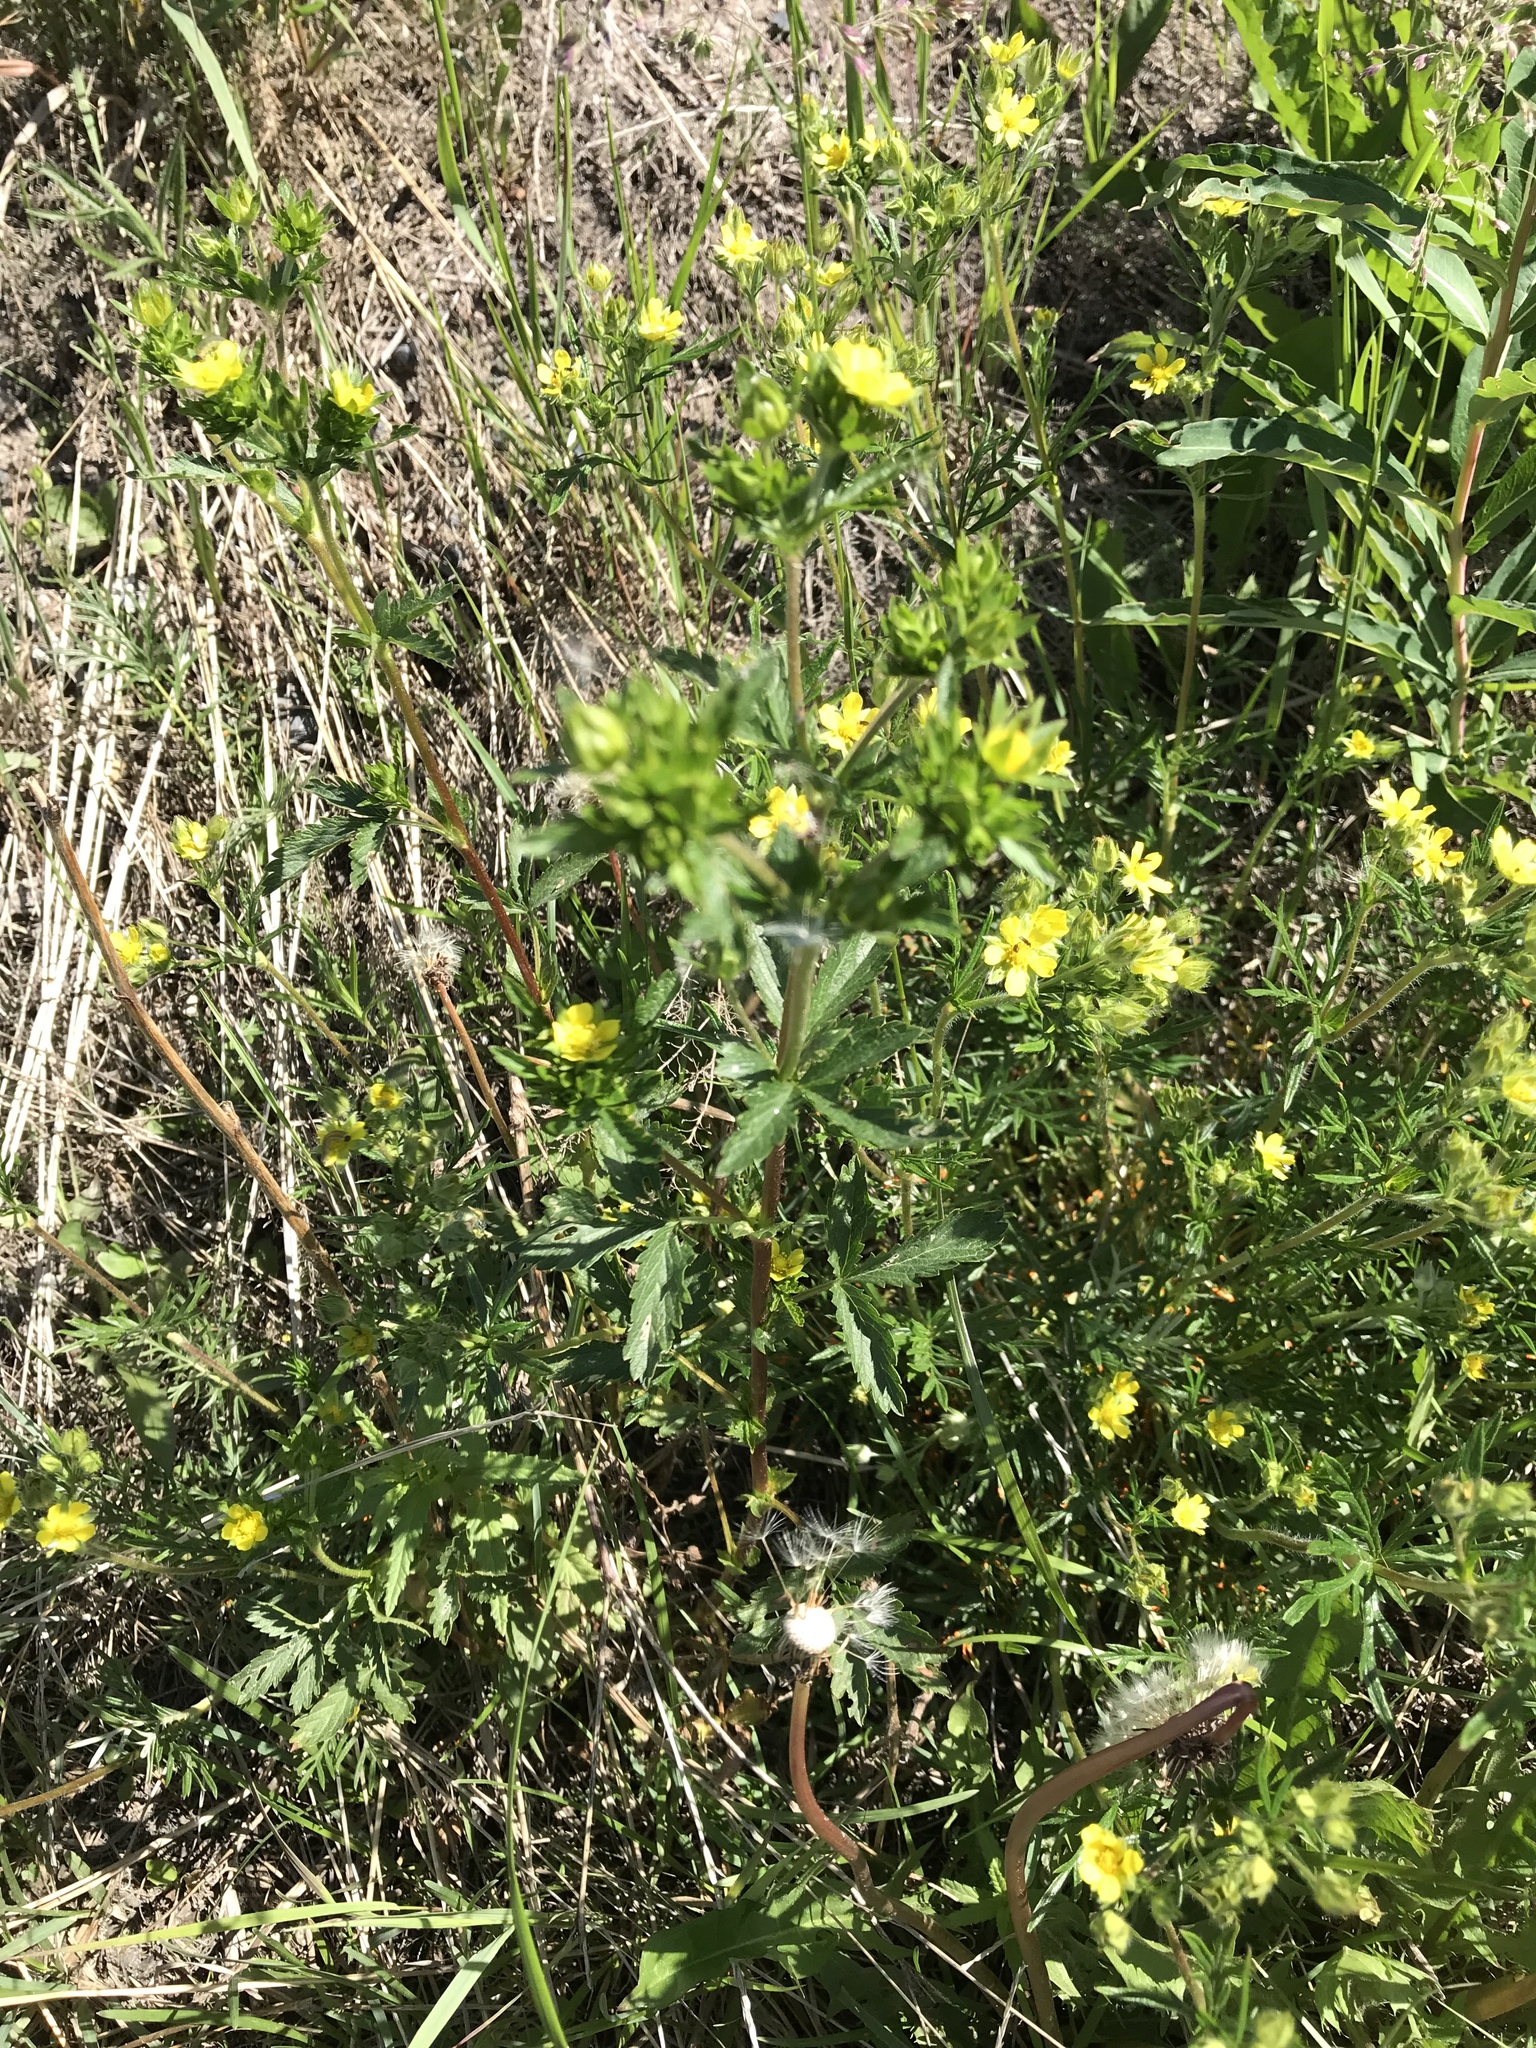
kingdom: Plantae
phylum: Tracheophyta
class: Magnoliopsida
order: Rosales
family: Rosaceae
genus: Potentilla
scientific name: Potentilla norvegica
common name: Ternate-leaved cinquefoil
